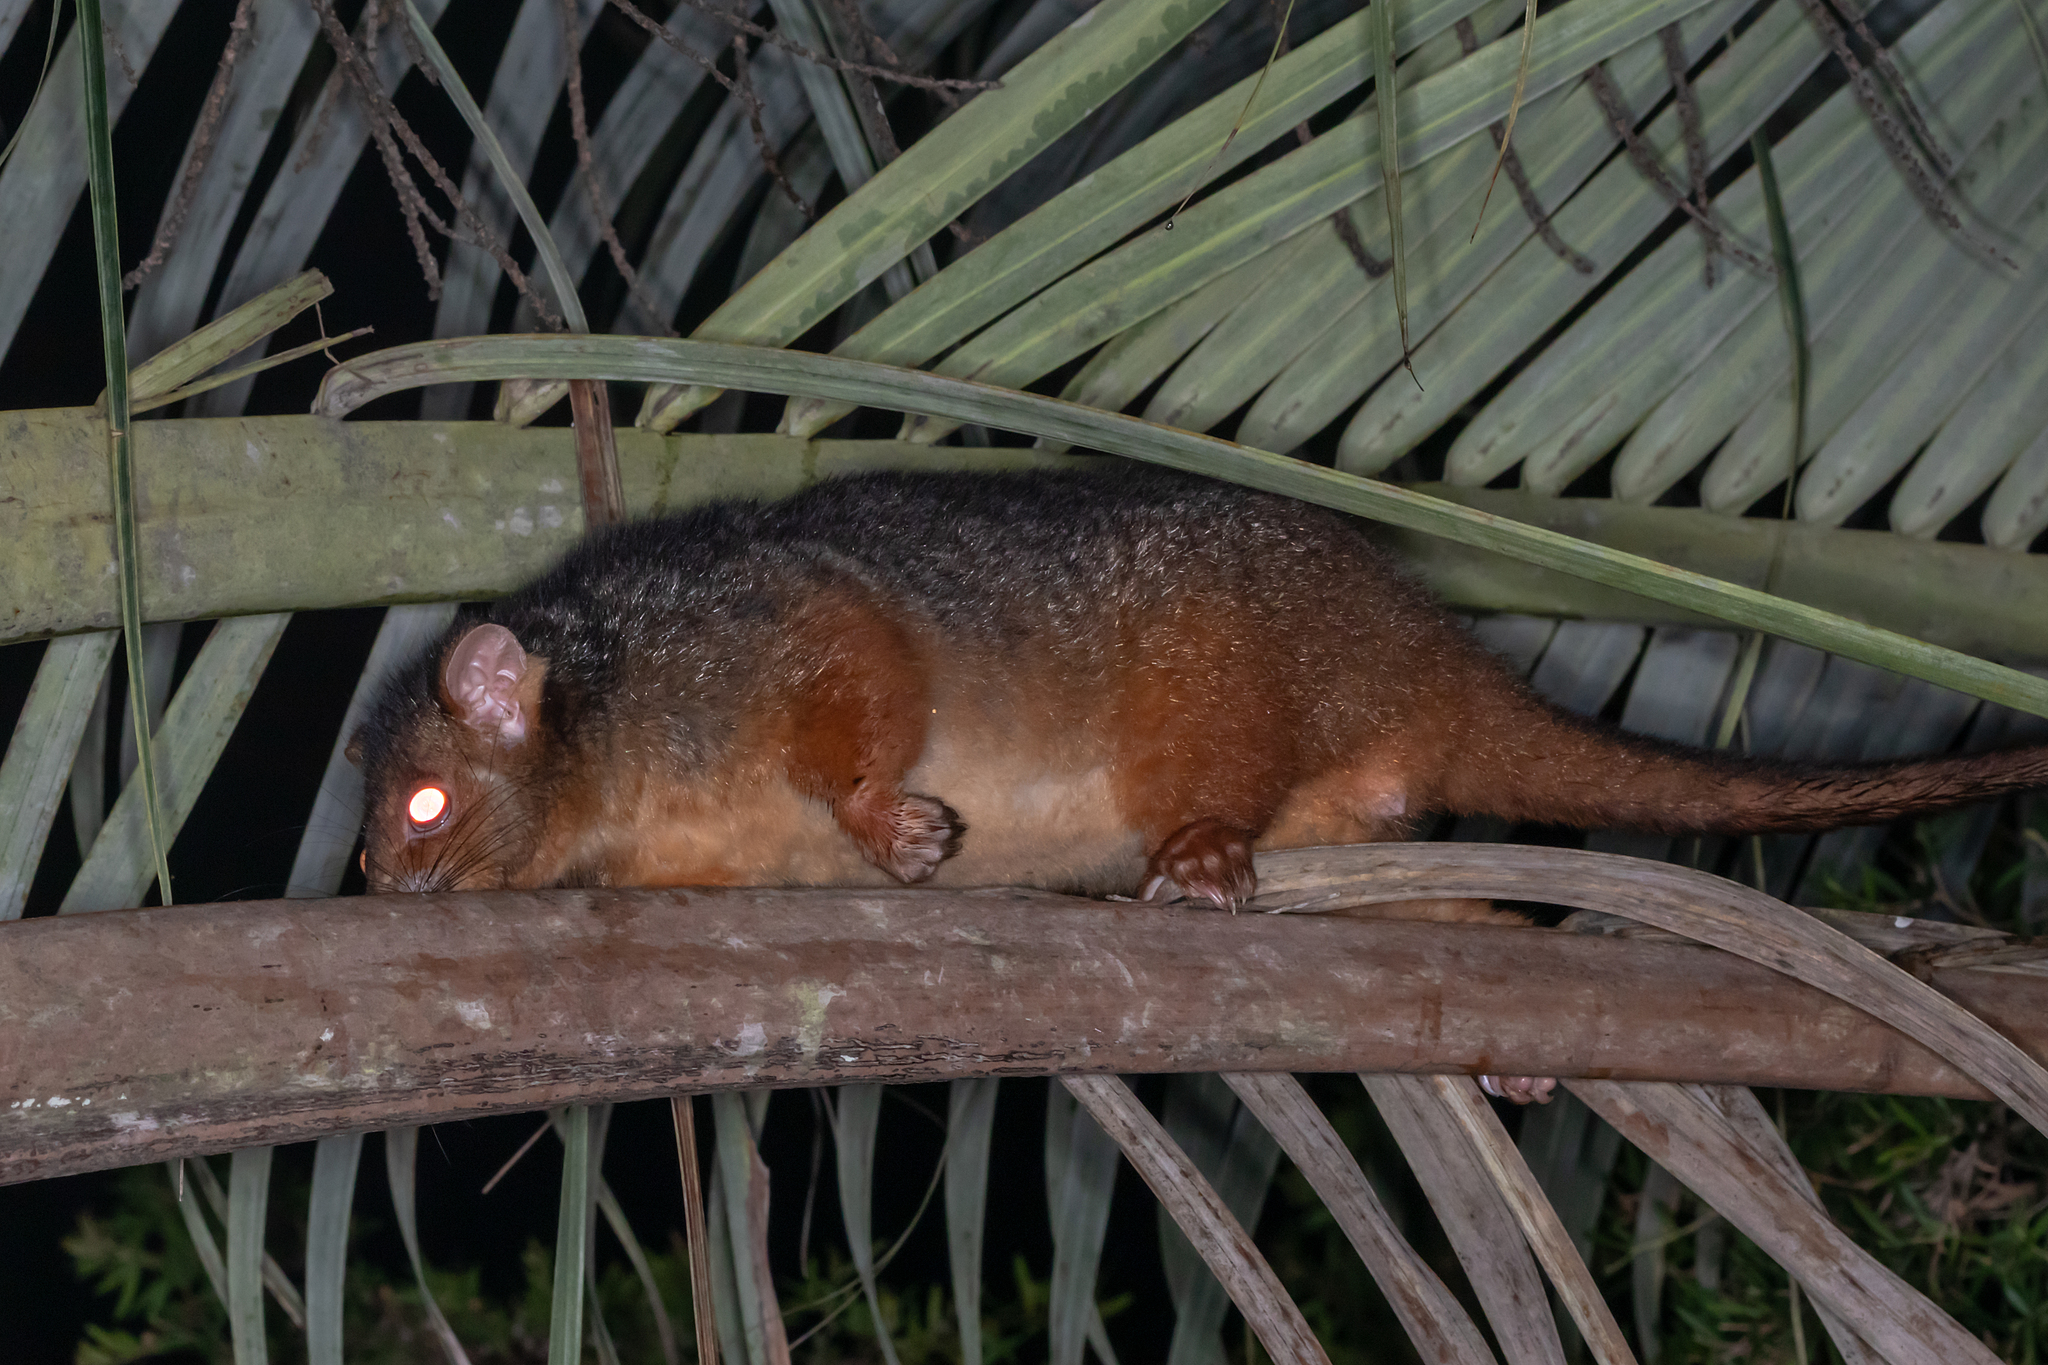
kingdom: Animalia
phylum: Chordata
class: Mammalia
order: Diprotodontia
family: Pseudocheiridae
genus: Pseudocheirus
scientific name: Pseudocheirus peregrinus
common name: Common ringtail possum
